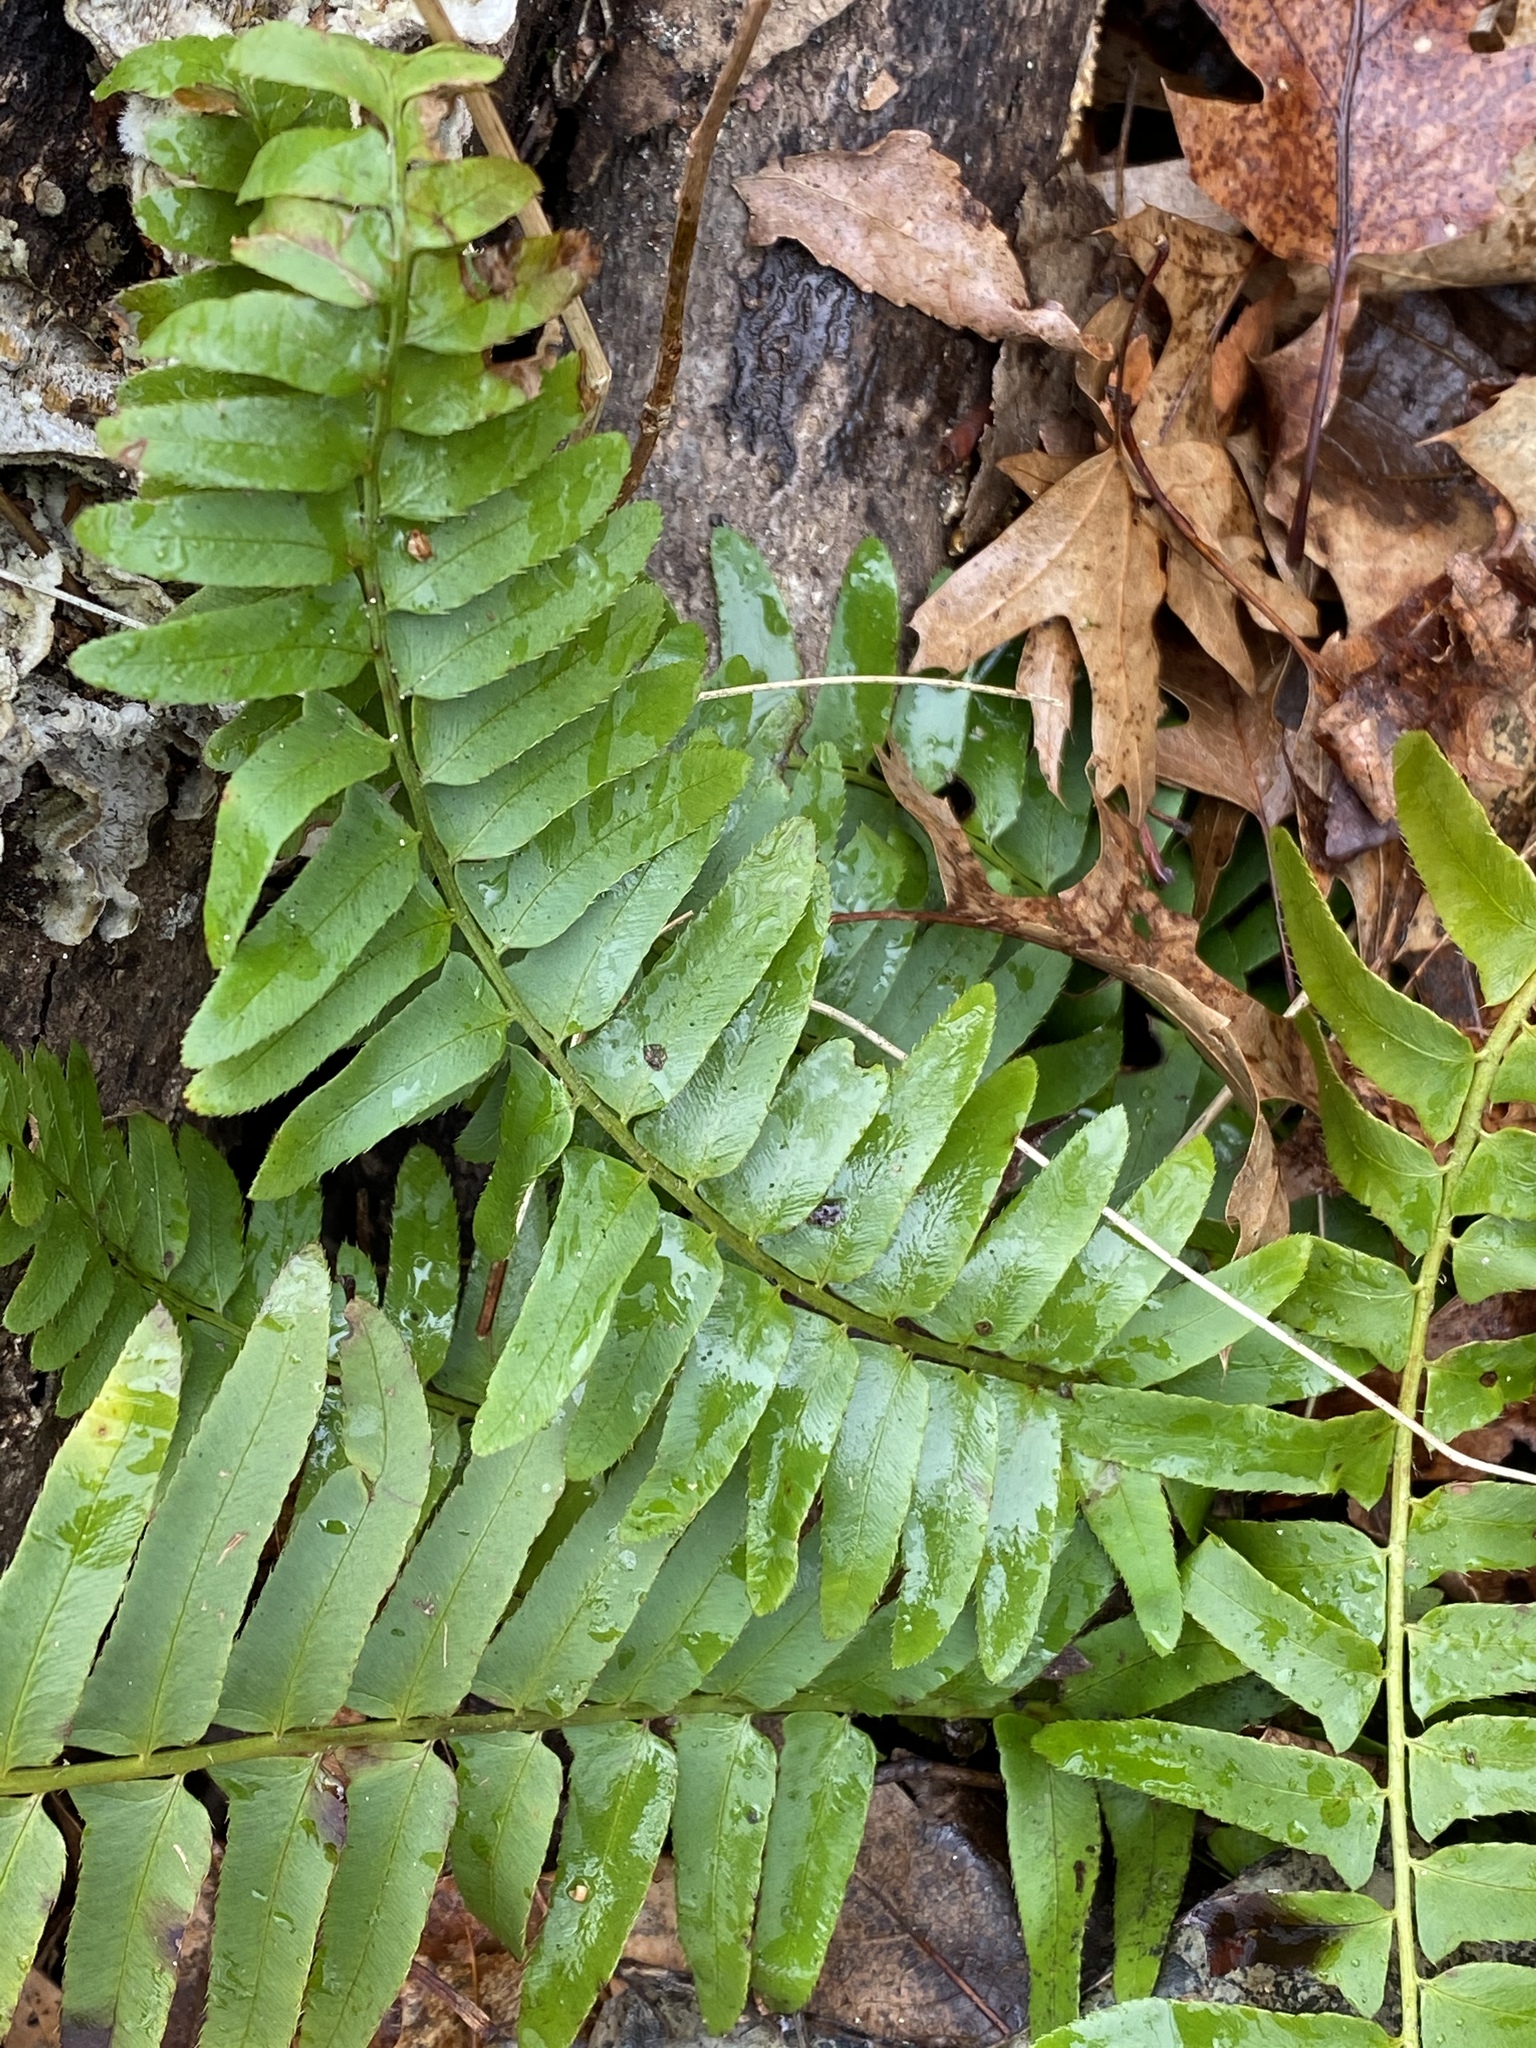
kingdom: Plantae
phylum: Tracheophyta
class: Polypodiopsida
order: Polypodiales
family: Dryopteridaceae
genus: Polystichum
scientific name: Polystichum acrostichoides
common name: Christmas fern
